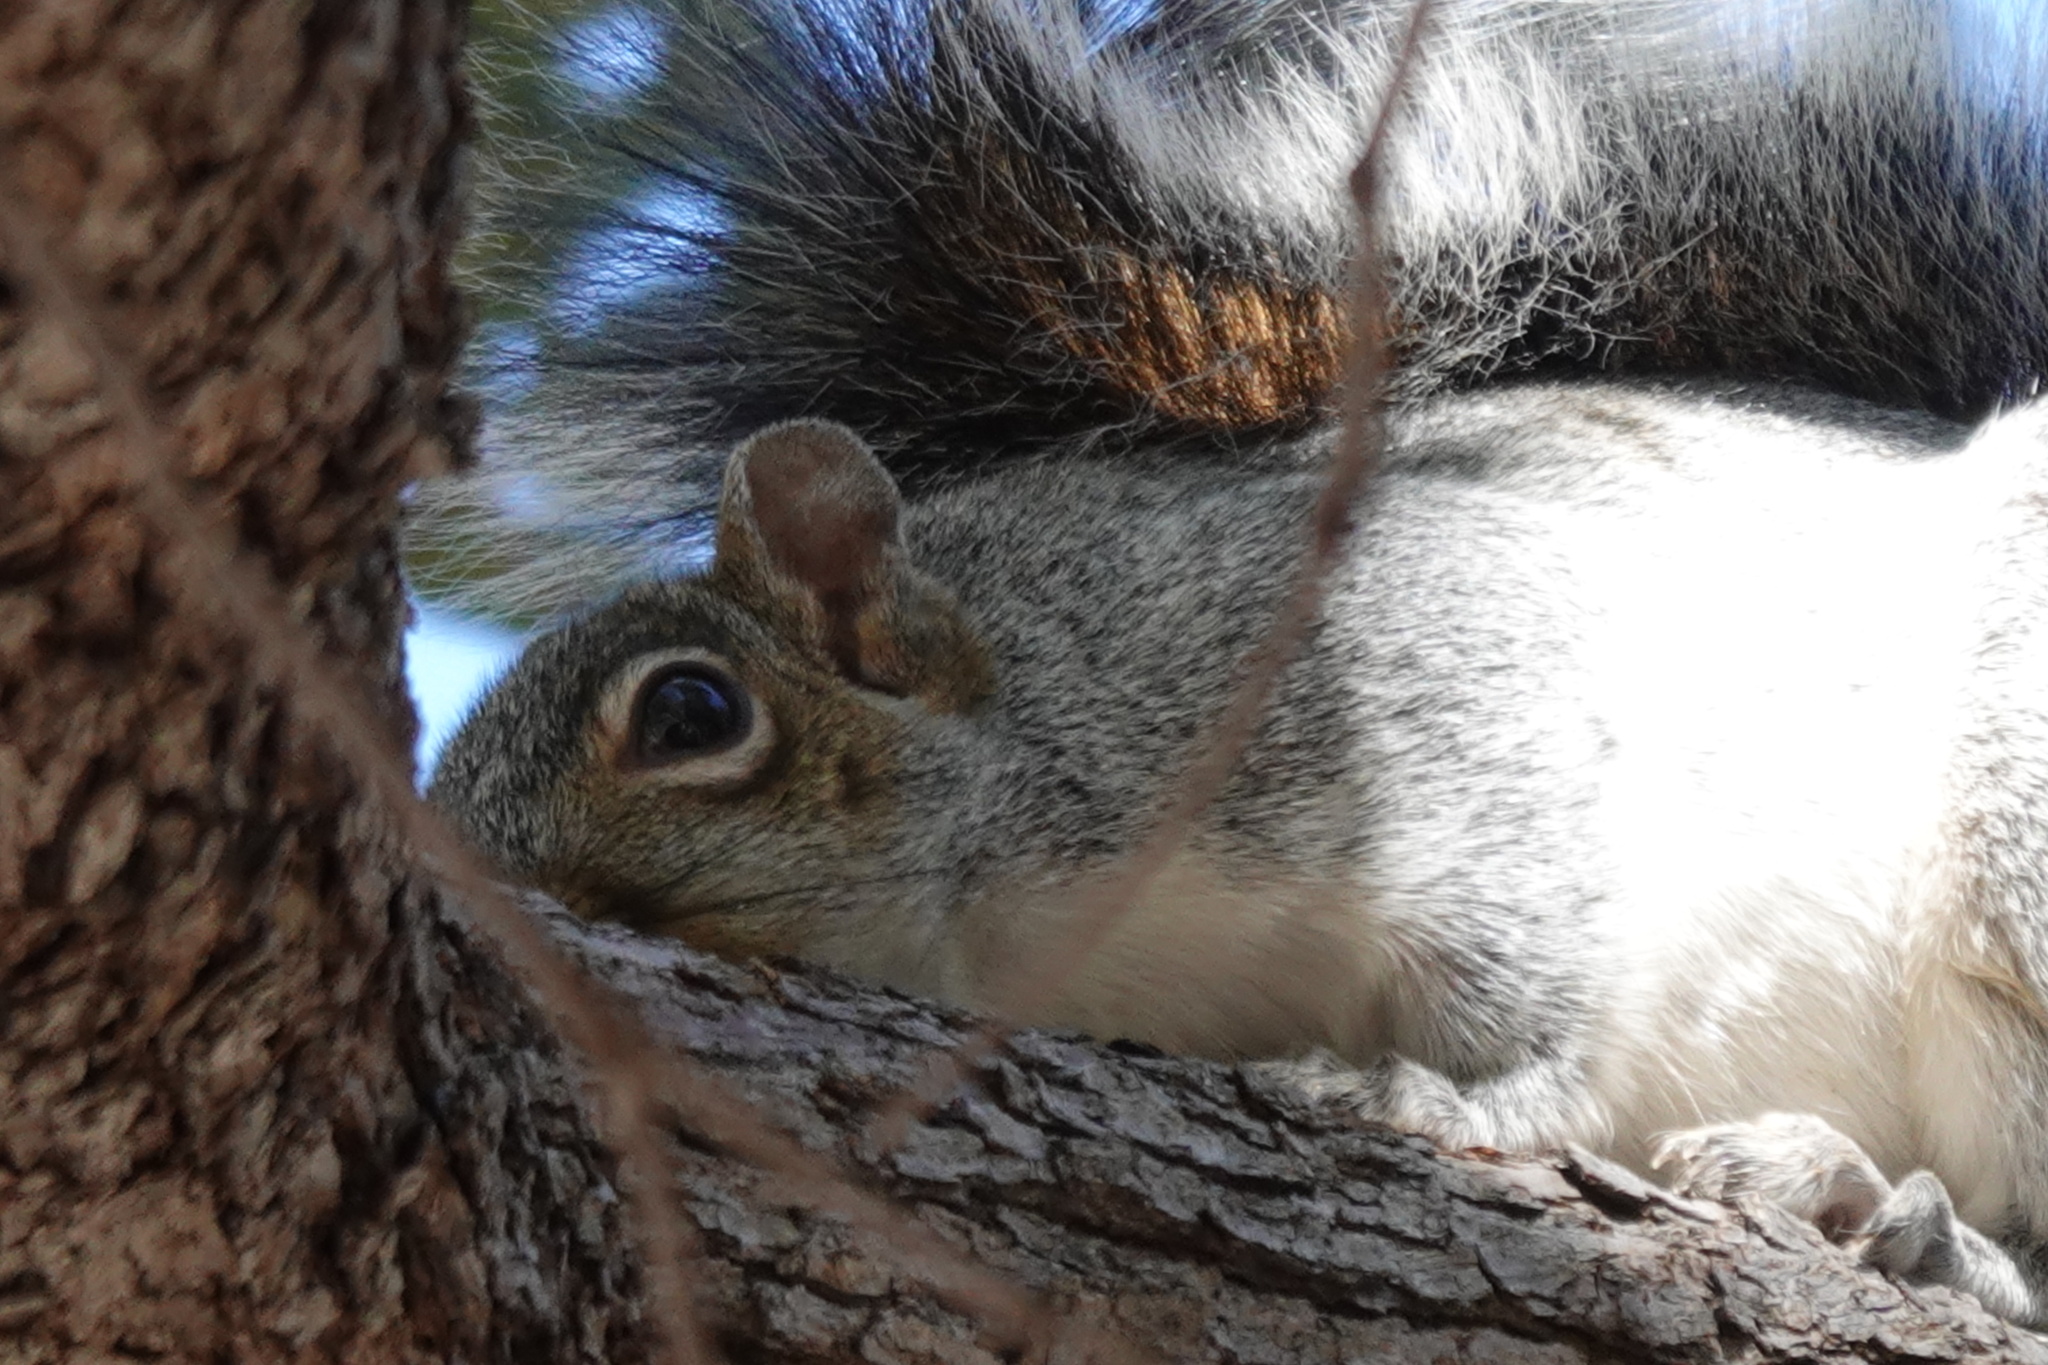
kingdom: Animalia
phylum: Chordata
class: Mammalia
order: Rodentia
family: Sciuridae
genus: Sciurus
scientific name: Sciurus arizonensis
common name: Arizona gray squirrel
